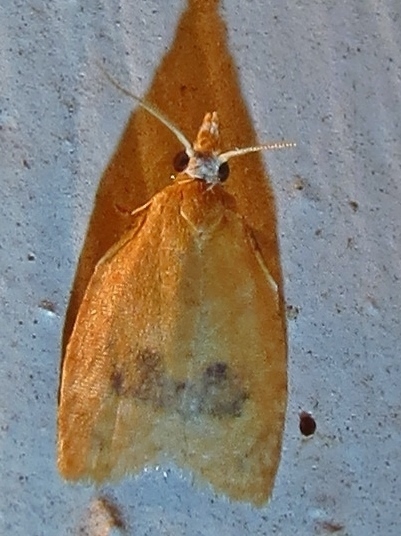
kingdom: Animalia
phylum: Arthropoda
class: Insecta
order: Lepidoptera
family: Tortricidae
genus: Sparganothoides
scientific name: Sparganothoides lentiginosana
